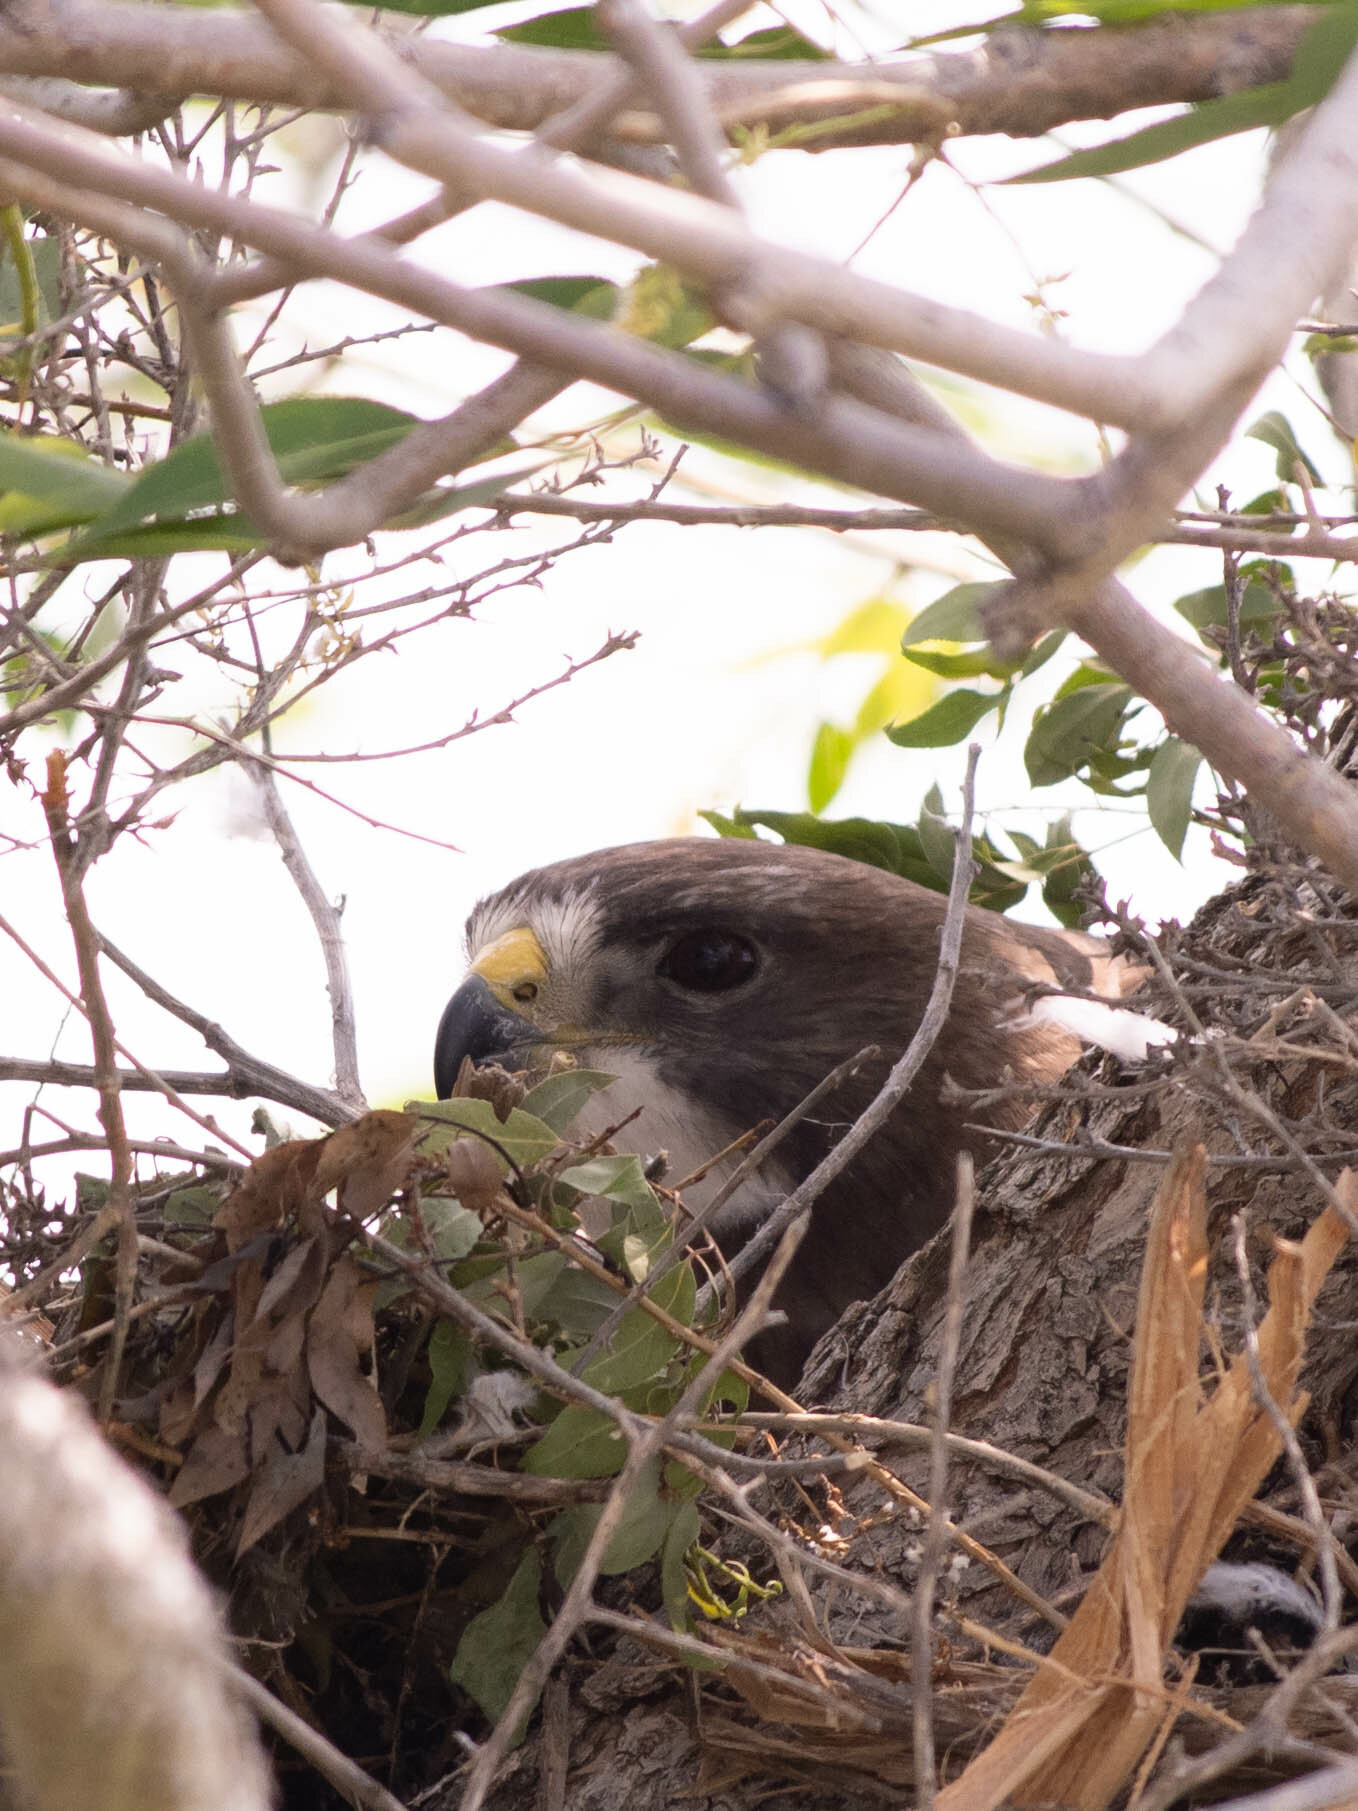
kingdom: Animalia
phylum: Chordata
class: Aves
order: Accipitriformes
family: Accipitridae
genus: Buteo
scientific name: Buteo swainsoni
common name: Swainson's hawk
